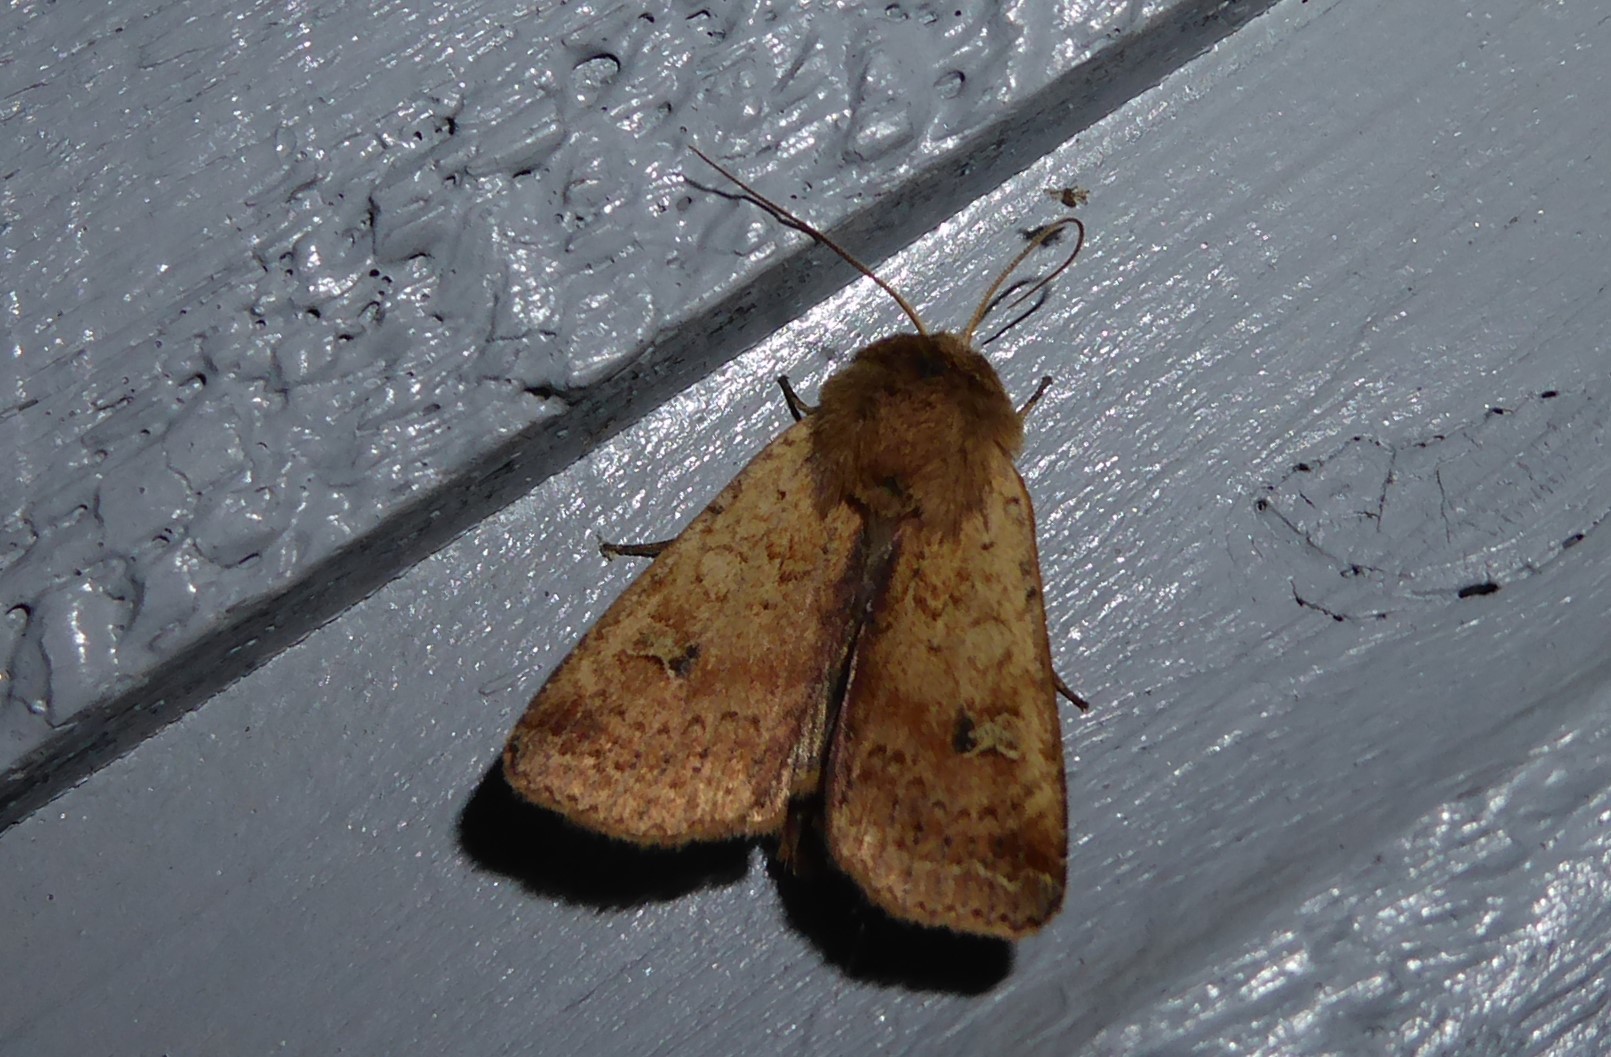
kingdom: Animalia
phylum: Arthropoda
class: Insecta
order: Lepidoptera
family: Noctuidae
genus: Diarsia
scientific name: Diarsia intermixta
